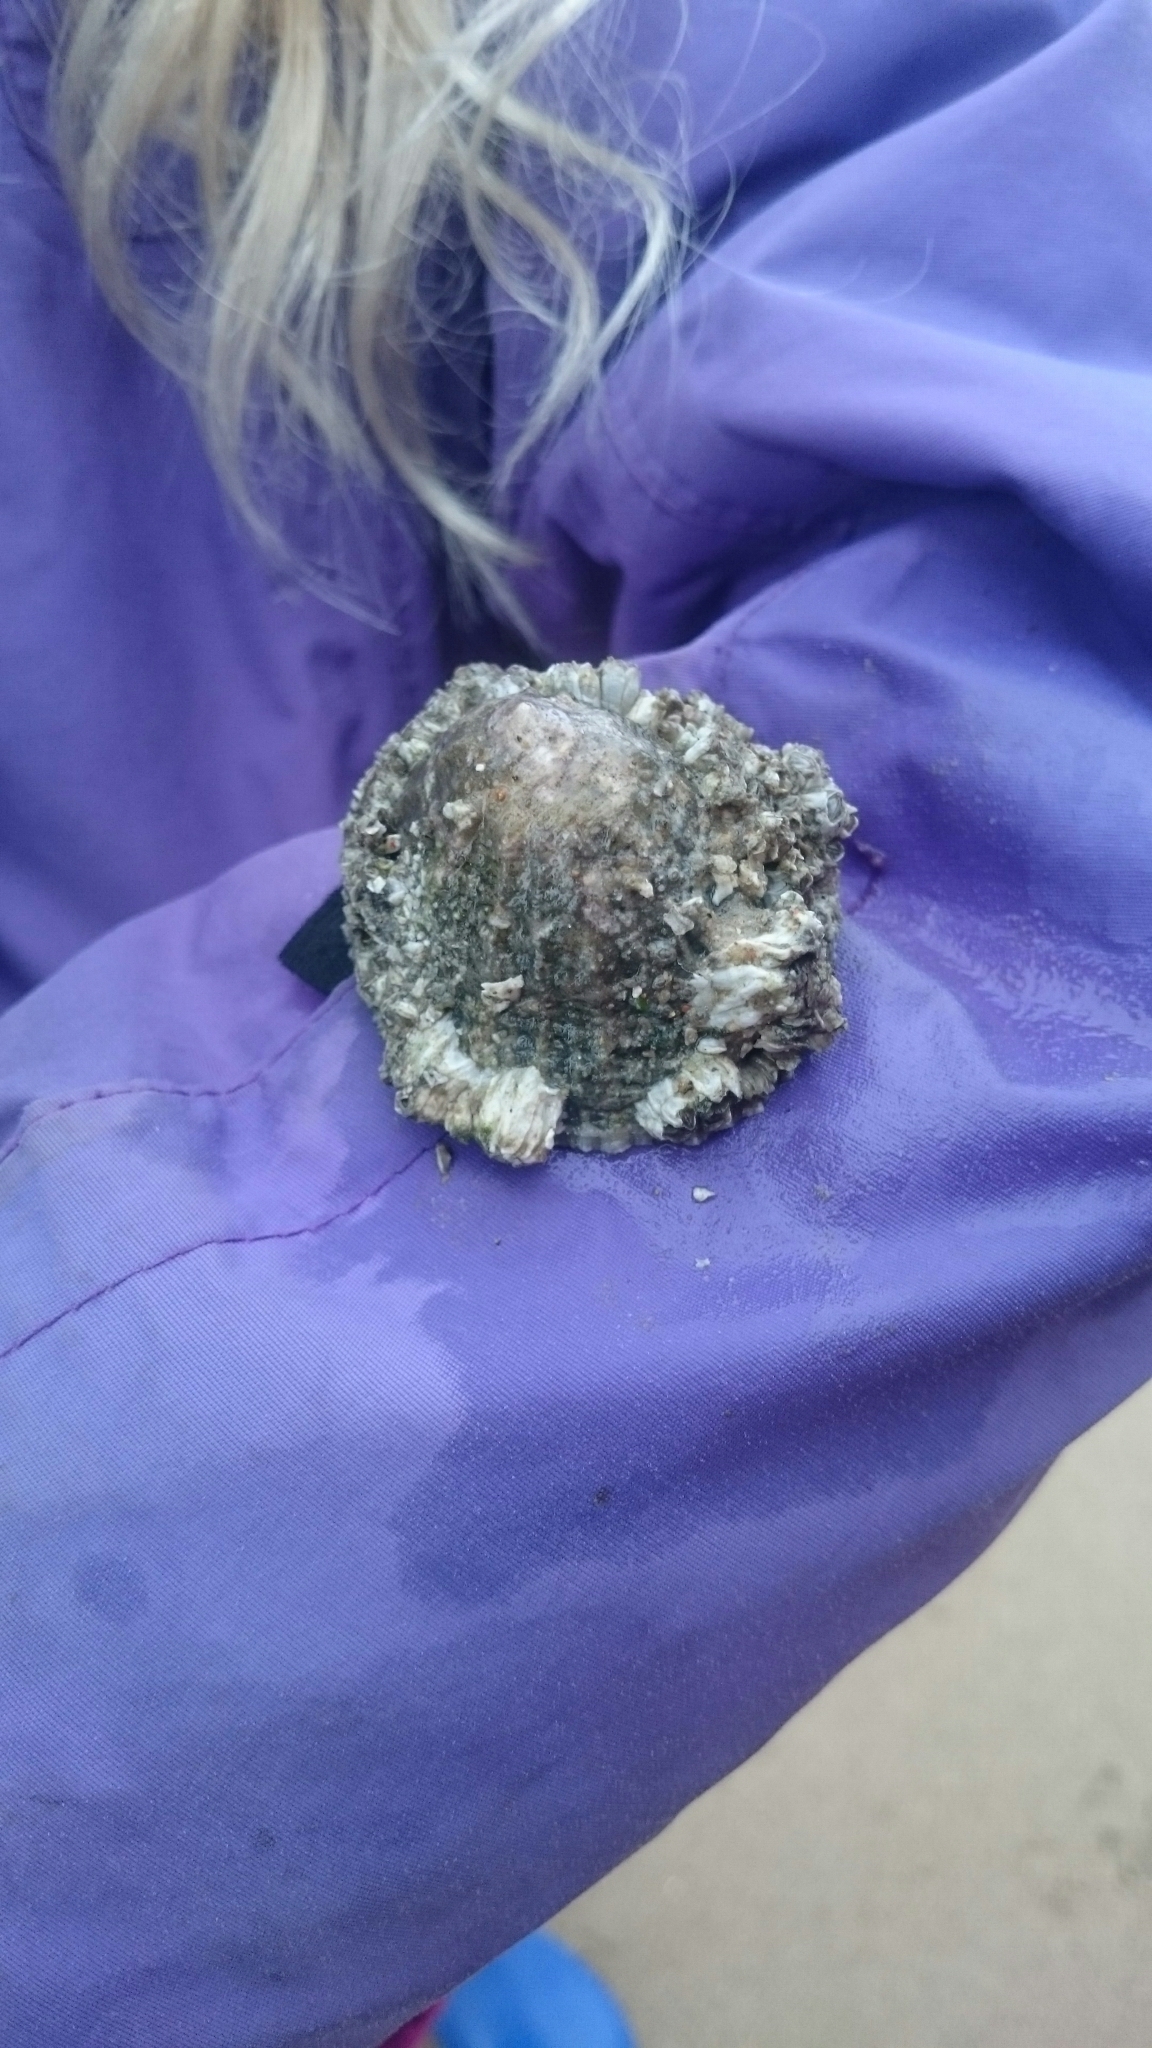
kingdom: Animalia
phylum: Mollusca
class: Gastropoda
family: Patellidae
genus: Patella
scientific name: Patella vulgata
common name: Common limpet
